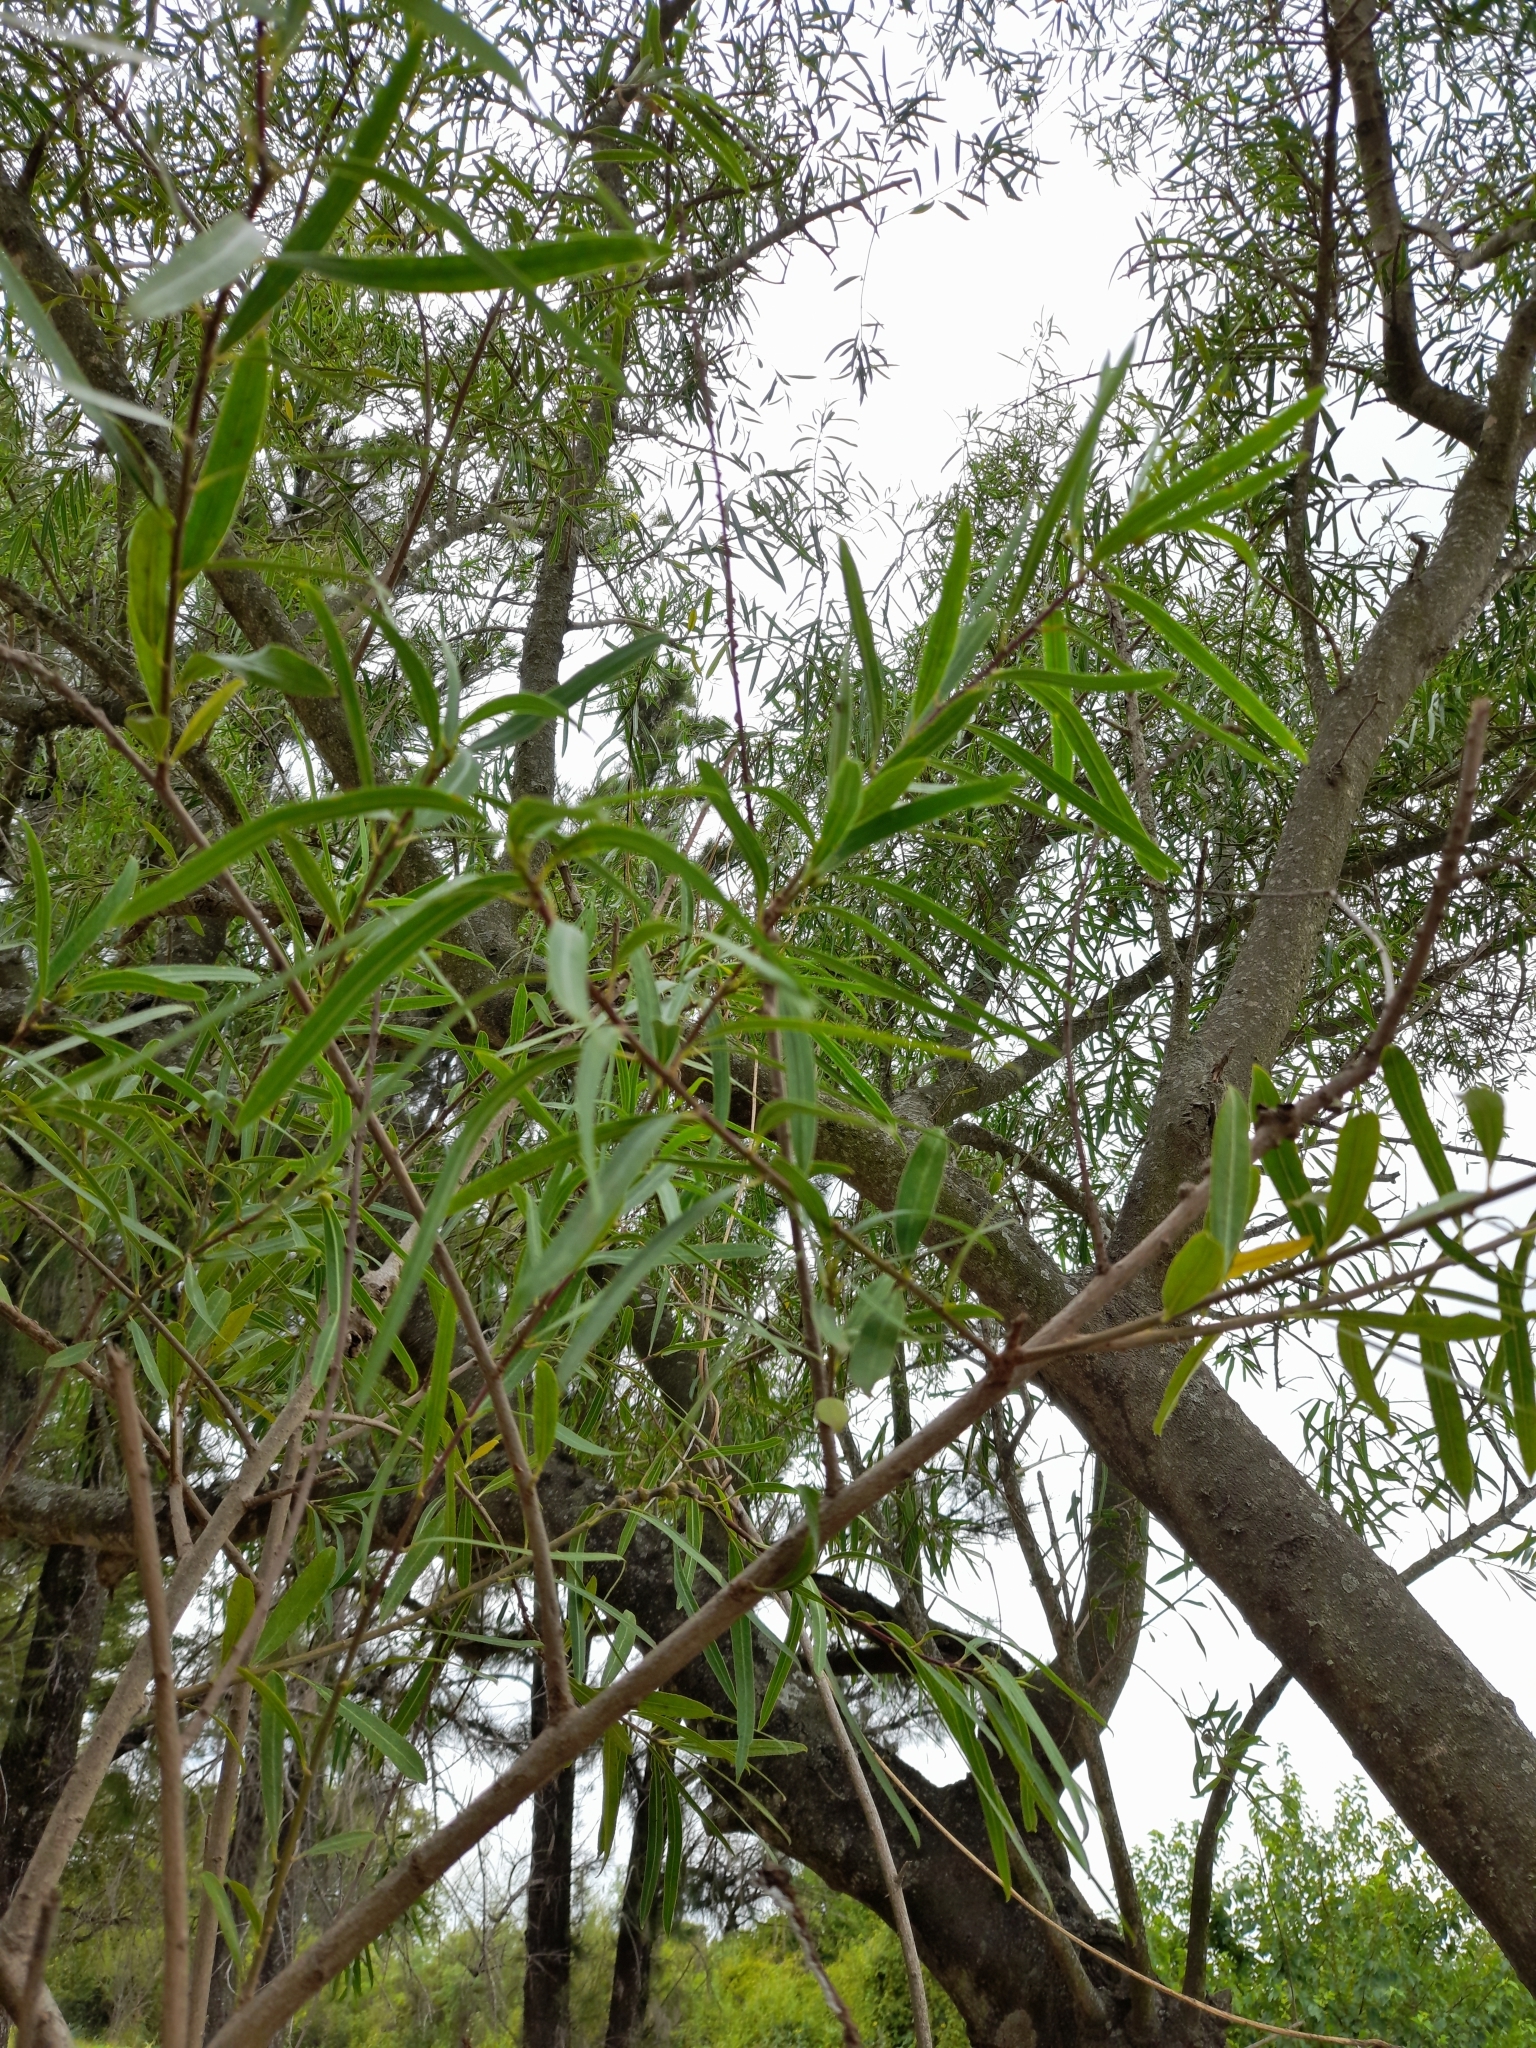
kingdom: Plantae
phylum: Tracheophyta
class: Magnoliopsida
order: Malpighiales
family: Euphorbiaceae
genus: Sapium
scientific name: Sapium haematospermum
